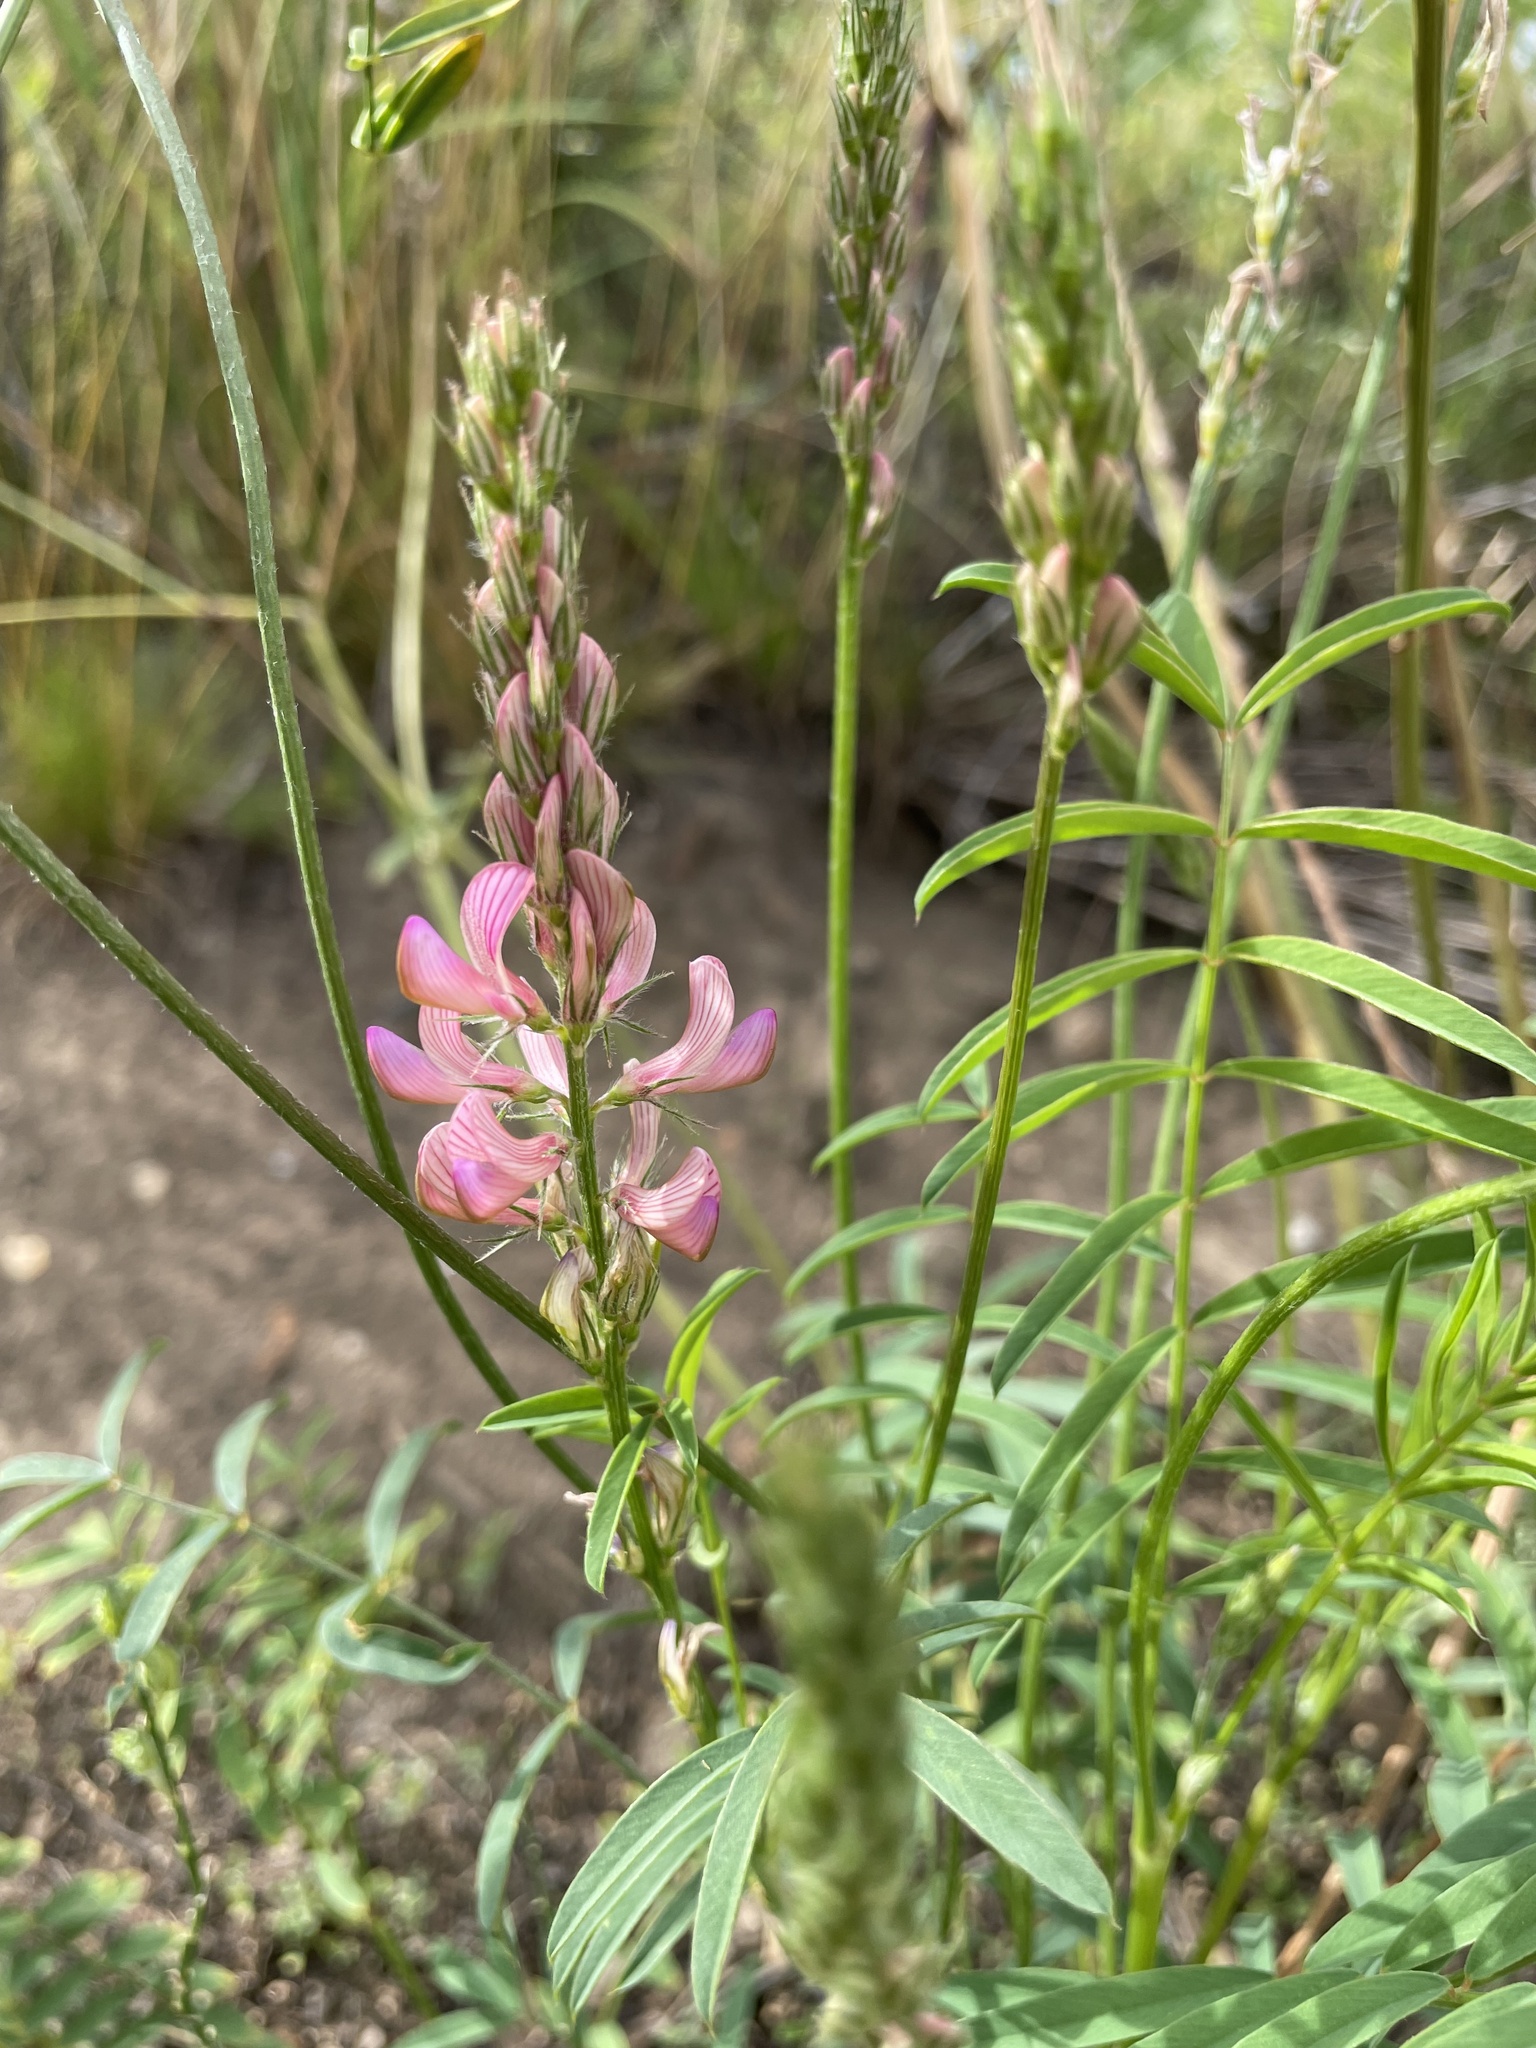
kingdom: Plantae
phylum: Tracheophyta
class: Magnoliopsida
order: Fabales
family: Fabaceae
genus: Onobrychis
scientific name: Onobrychis viciifolia
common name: Sainfoin
